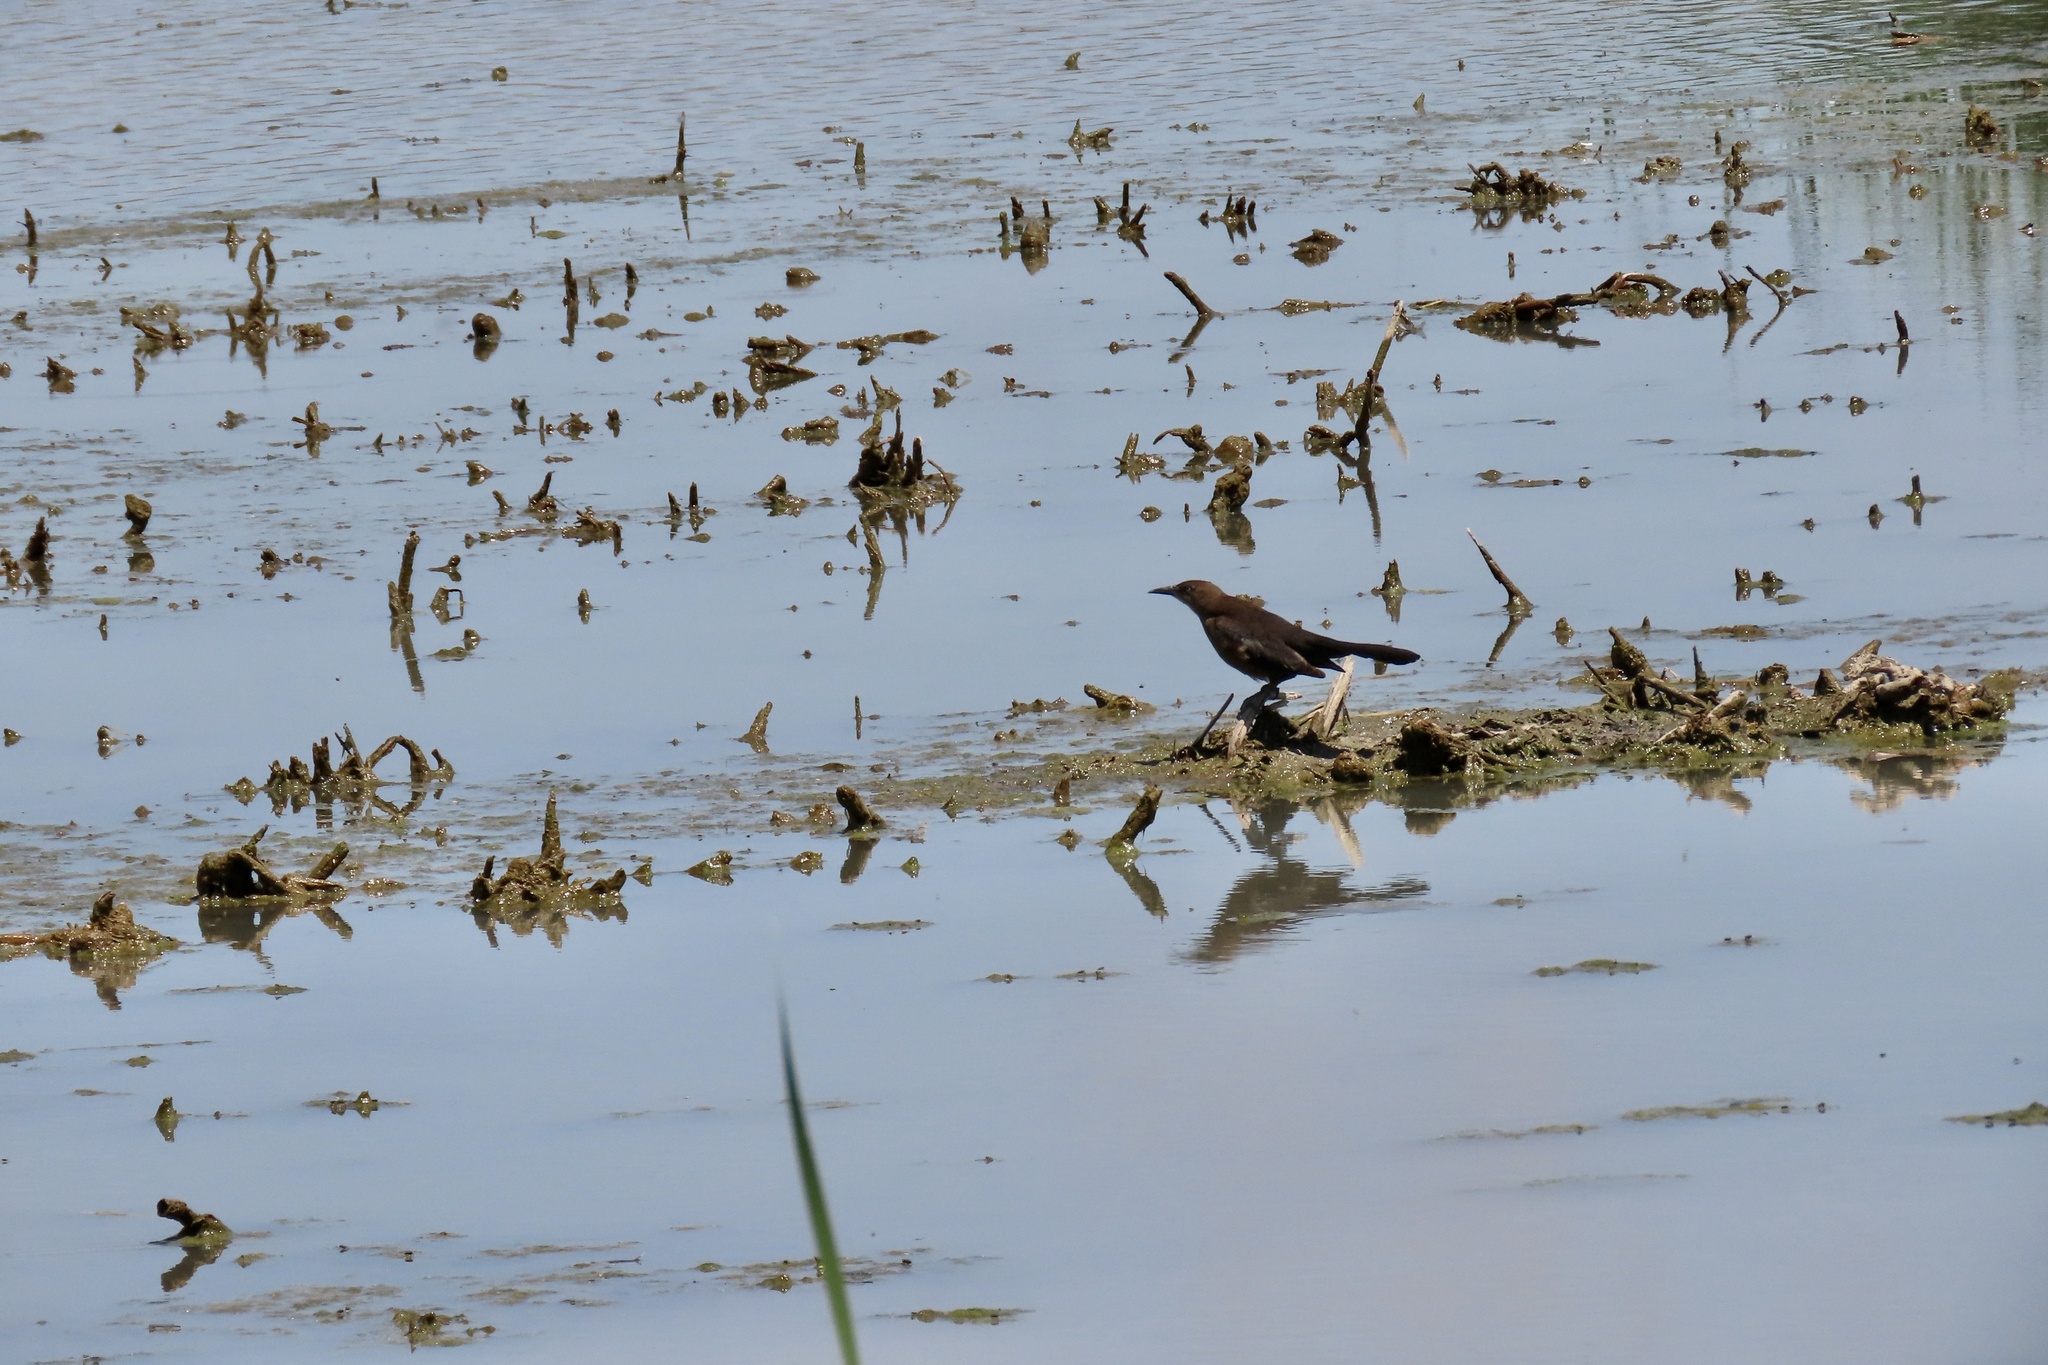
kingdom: Animalia
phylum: Chordata
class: Aves
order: Passeriformes
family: Icteridae
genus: Quiscalus
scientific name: Quiscalus mexicanus
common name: Great-tailed grackle
